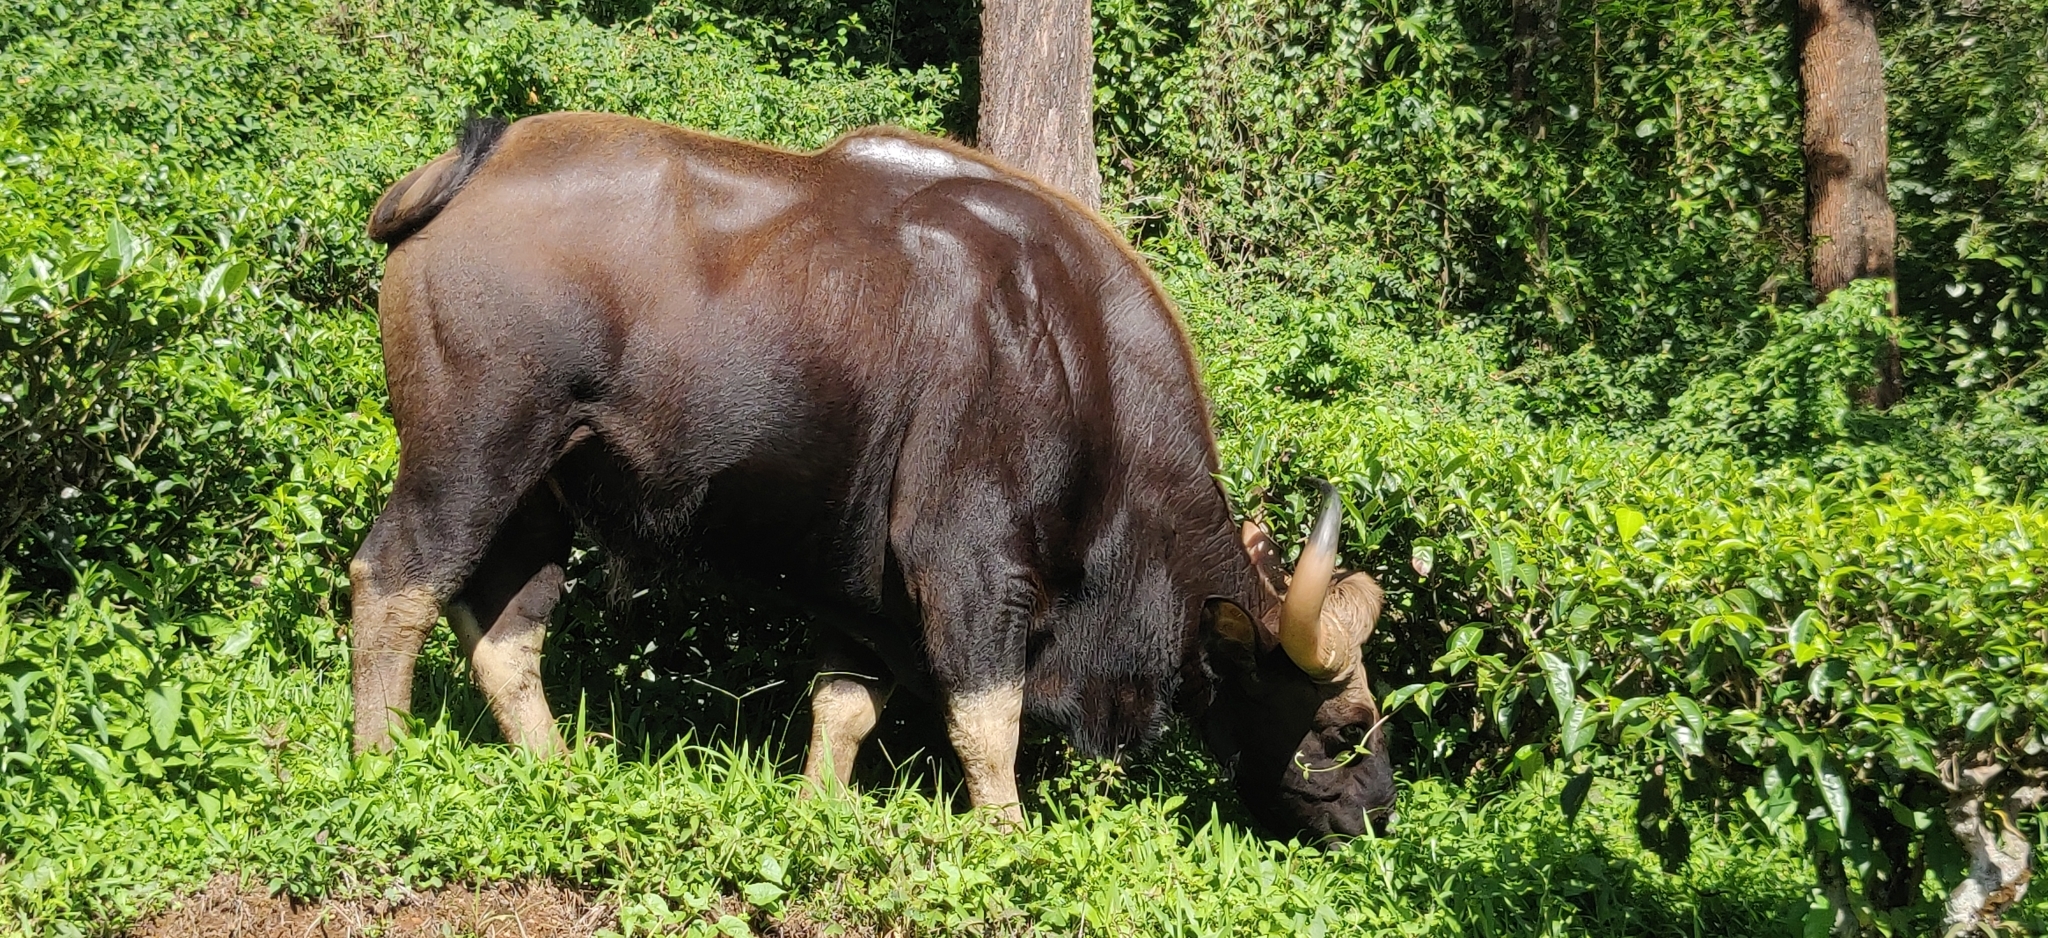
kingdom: Animalia
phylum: Chordata
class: Mammalia
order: Artiodactyla
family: Bovidae
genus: Bos
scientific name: Bos frontalis
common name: Gaur
